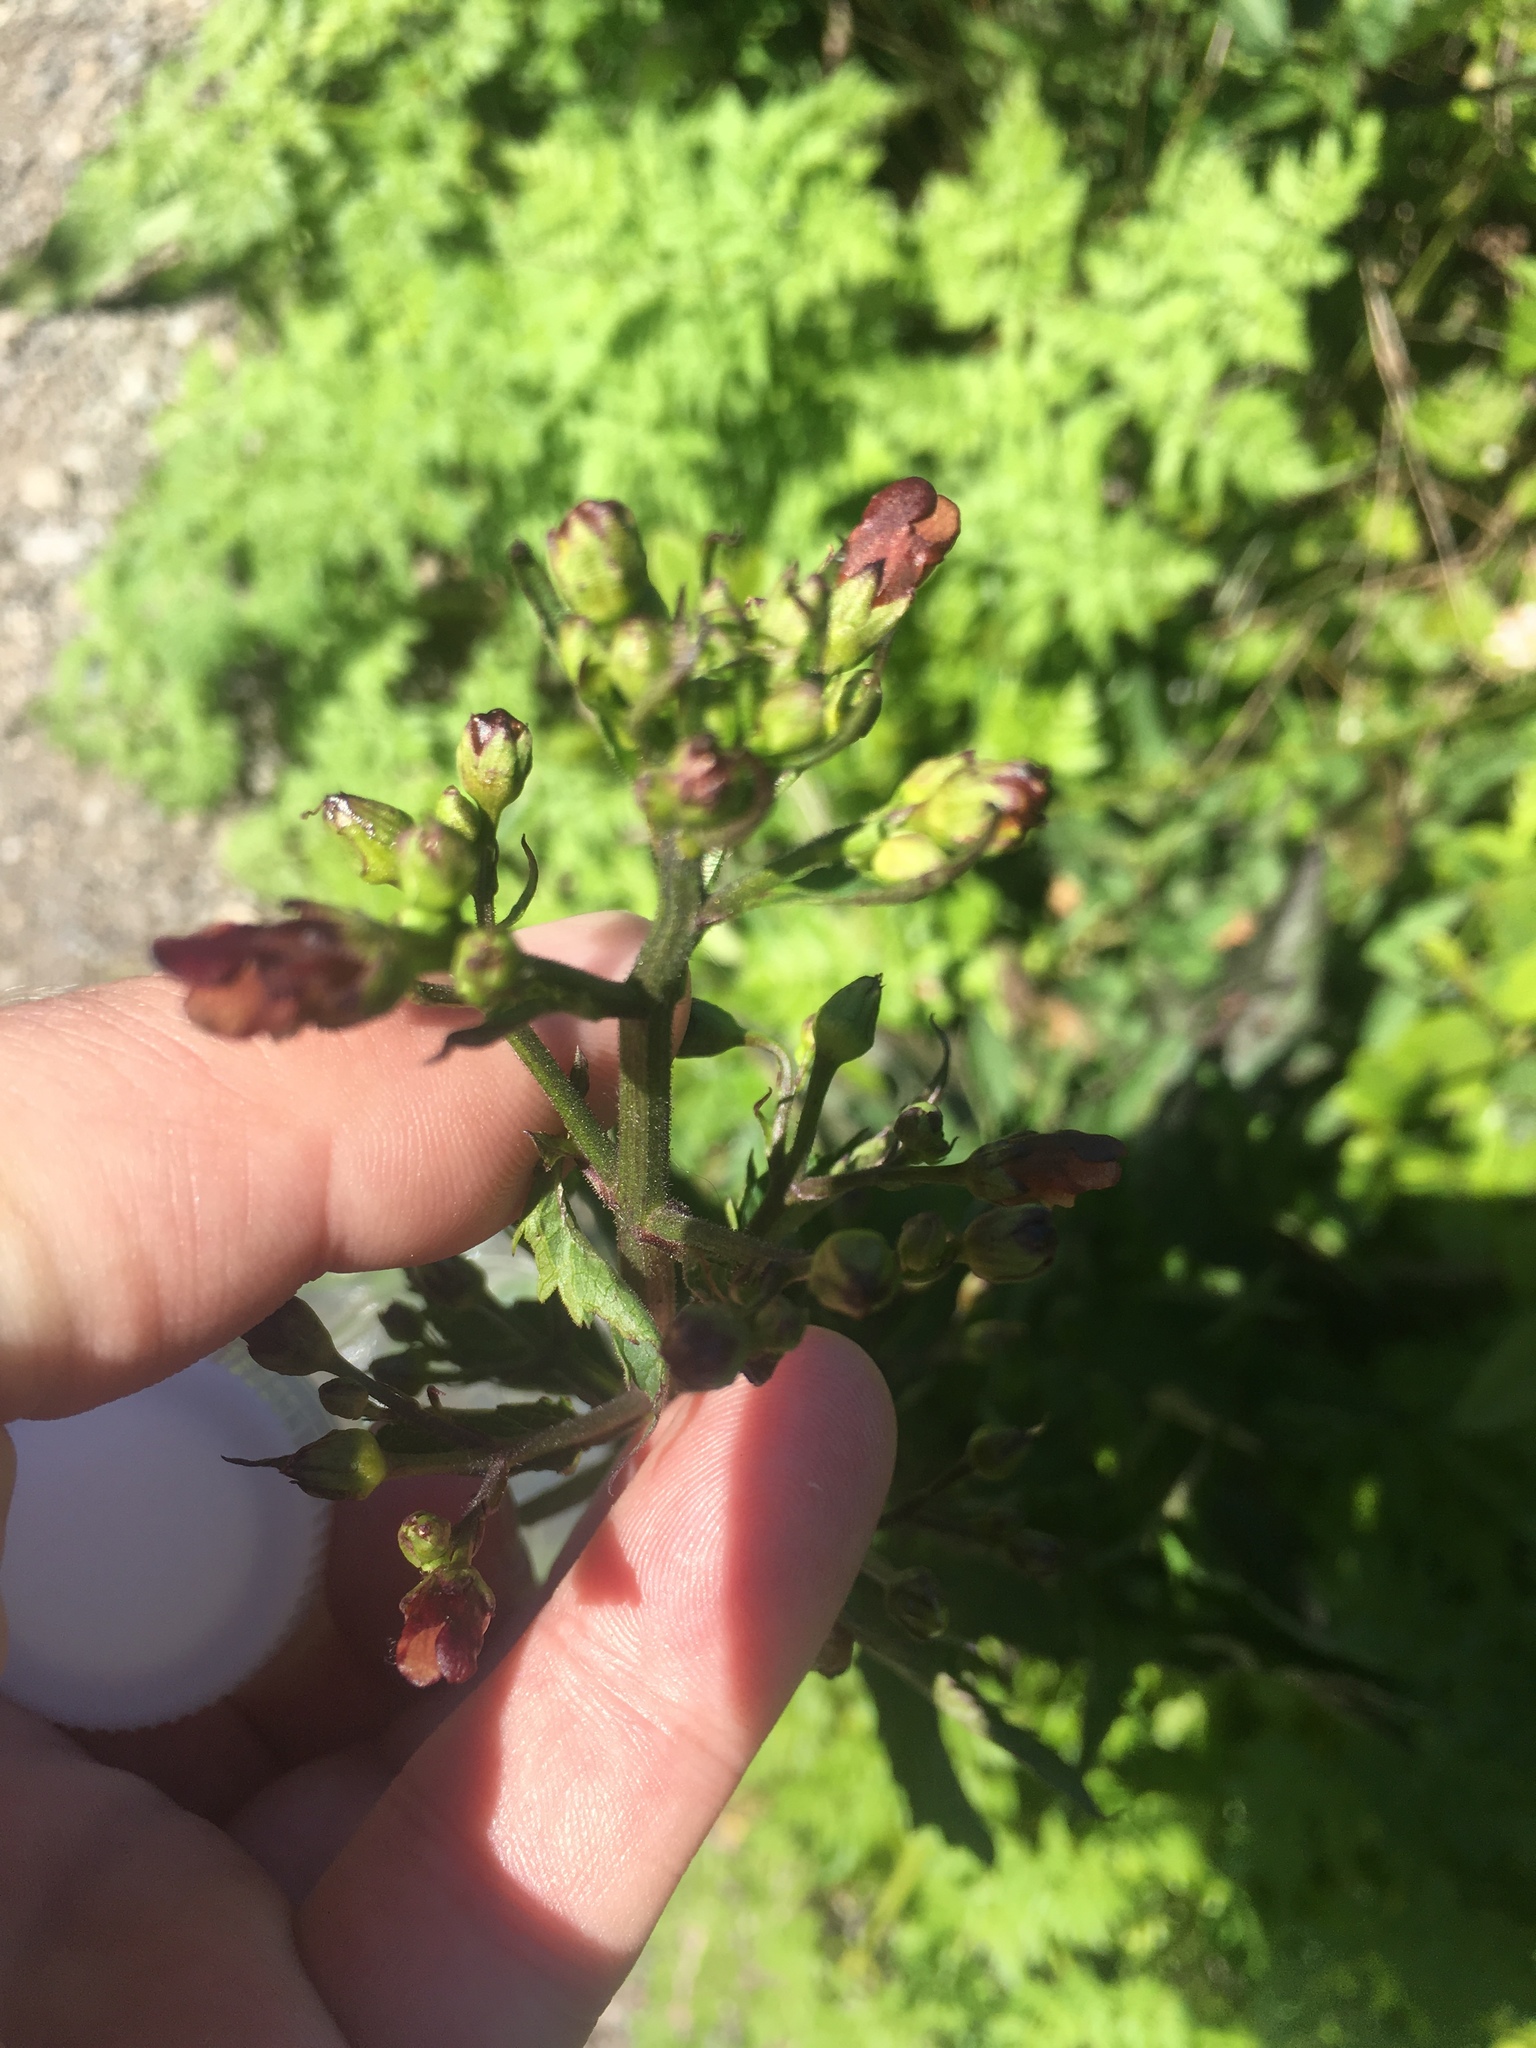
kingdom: Plantae
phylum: Tracheophyta
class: Magnoliopsida
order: Lamiales
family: Scrophulariaceae
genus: Scrophularia
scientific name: Scrophularia californica
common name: California figwort
